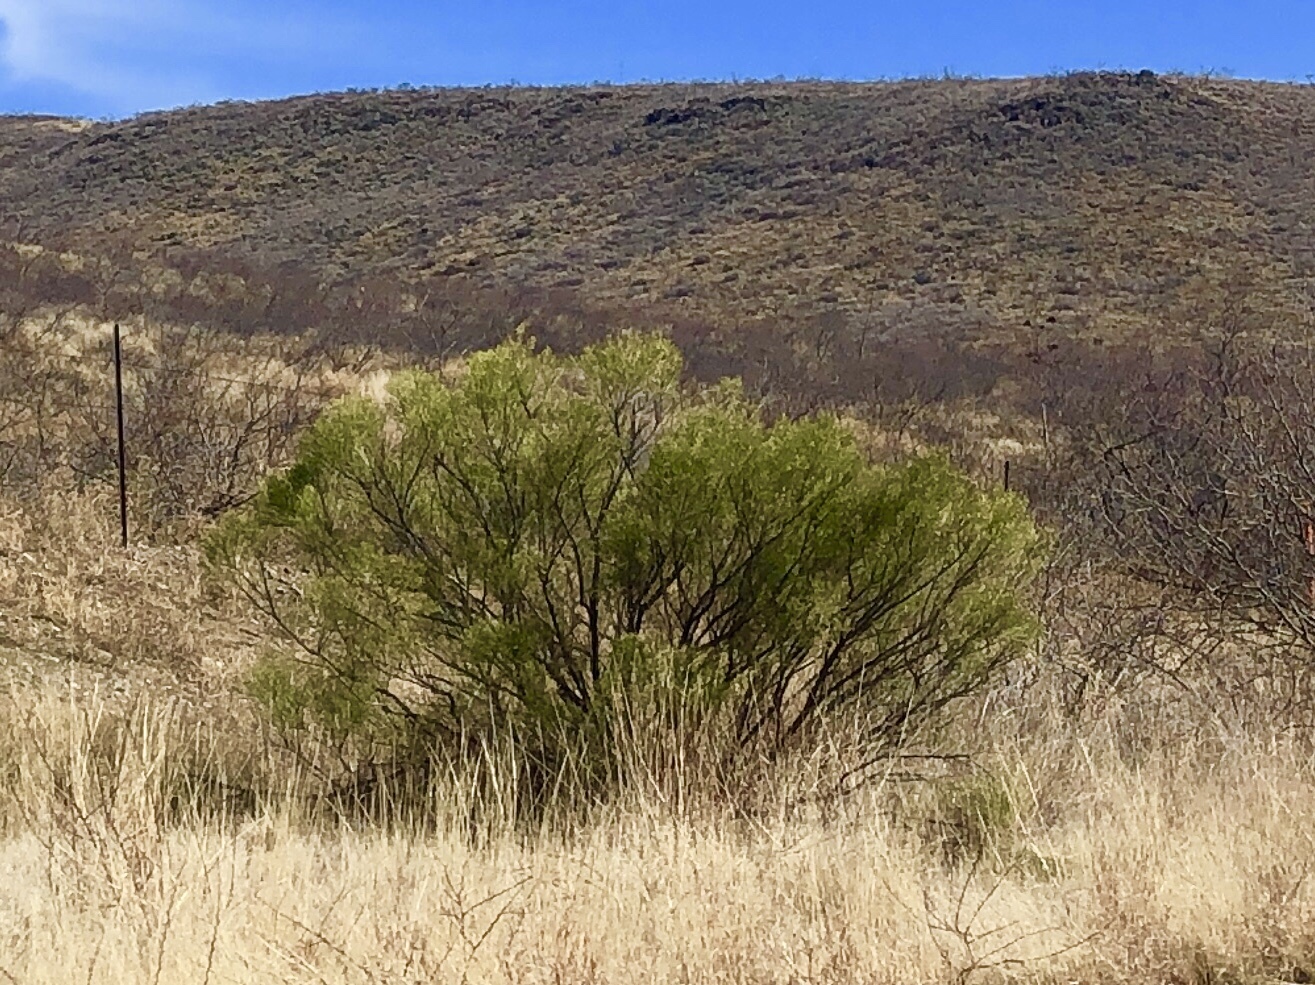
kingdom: Plantae
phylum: Tracheophyta
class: Magnoliopsida
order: Asterales
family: Asteraceae
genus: Baccharis
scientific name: Baccharis sarothroides
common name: Desert-broom
